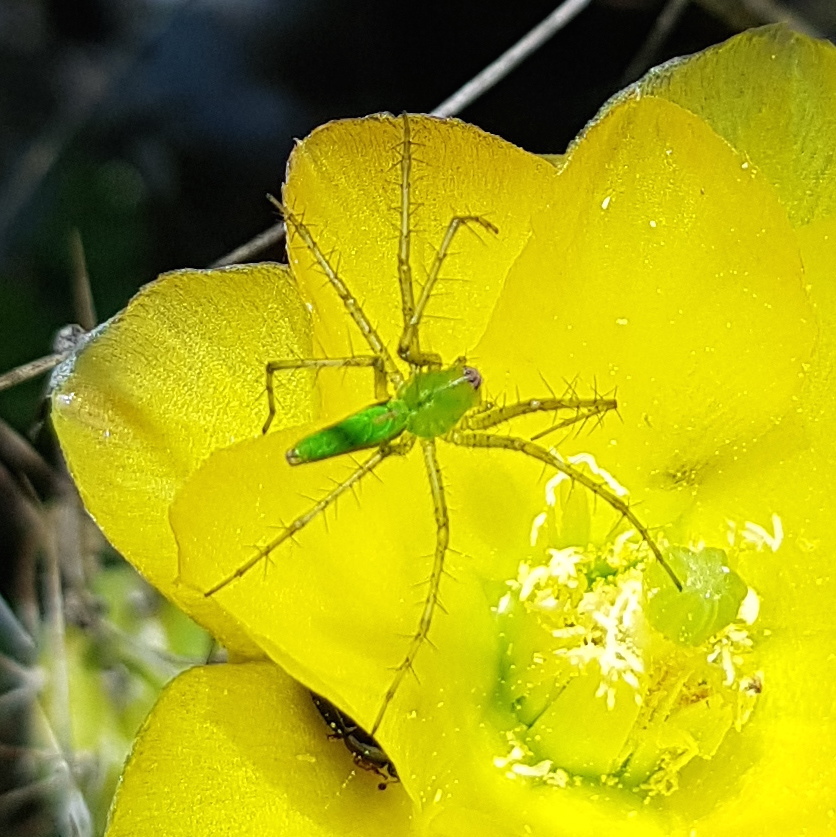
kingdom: Animalia
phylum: Arthropoda
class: Arachnida
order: Araneae
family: Oxyopidae
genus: Peucetia
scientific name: Peucetia viridans
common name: Lynx spiders
